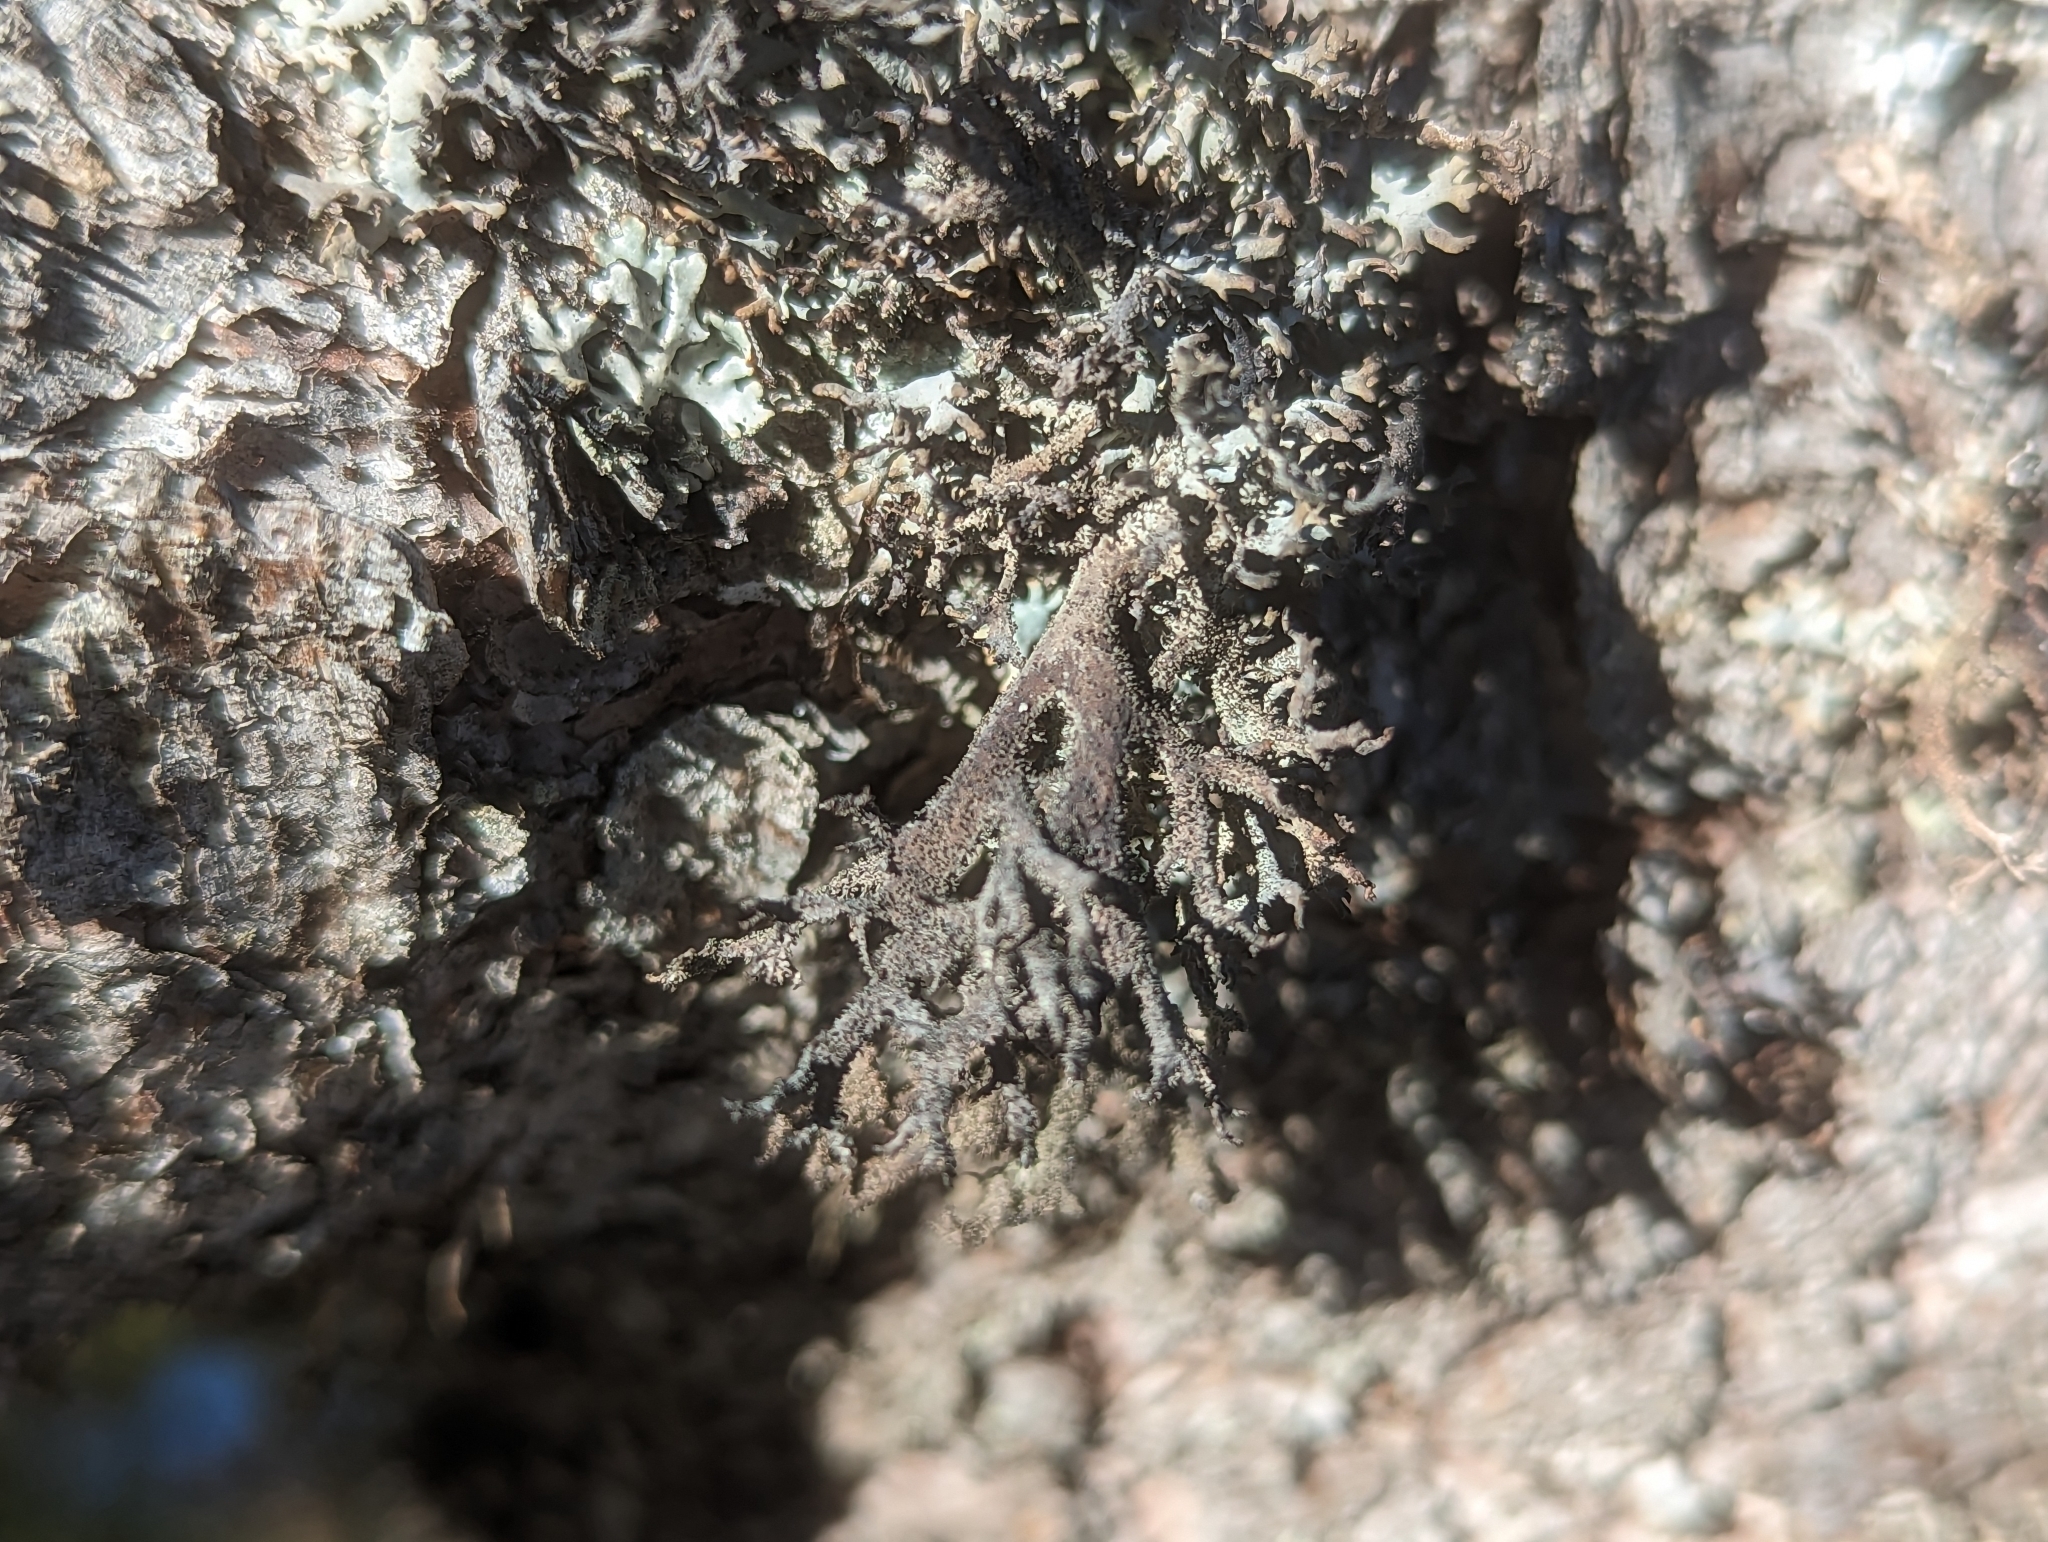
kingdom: Fungi
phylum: Ascomycota
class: Lecanoromycetes
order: Lecanorales
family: Parmeliaceae
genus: Pseudevernia
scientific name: Pseudevernia furfuracea
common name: Tree moss
